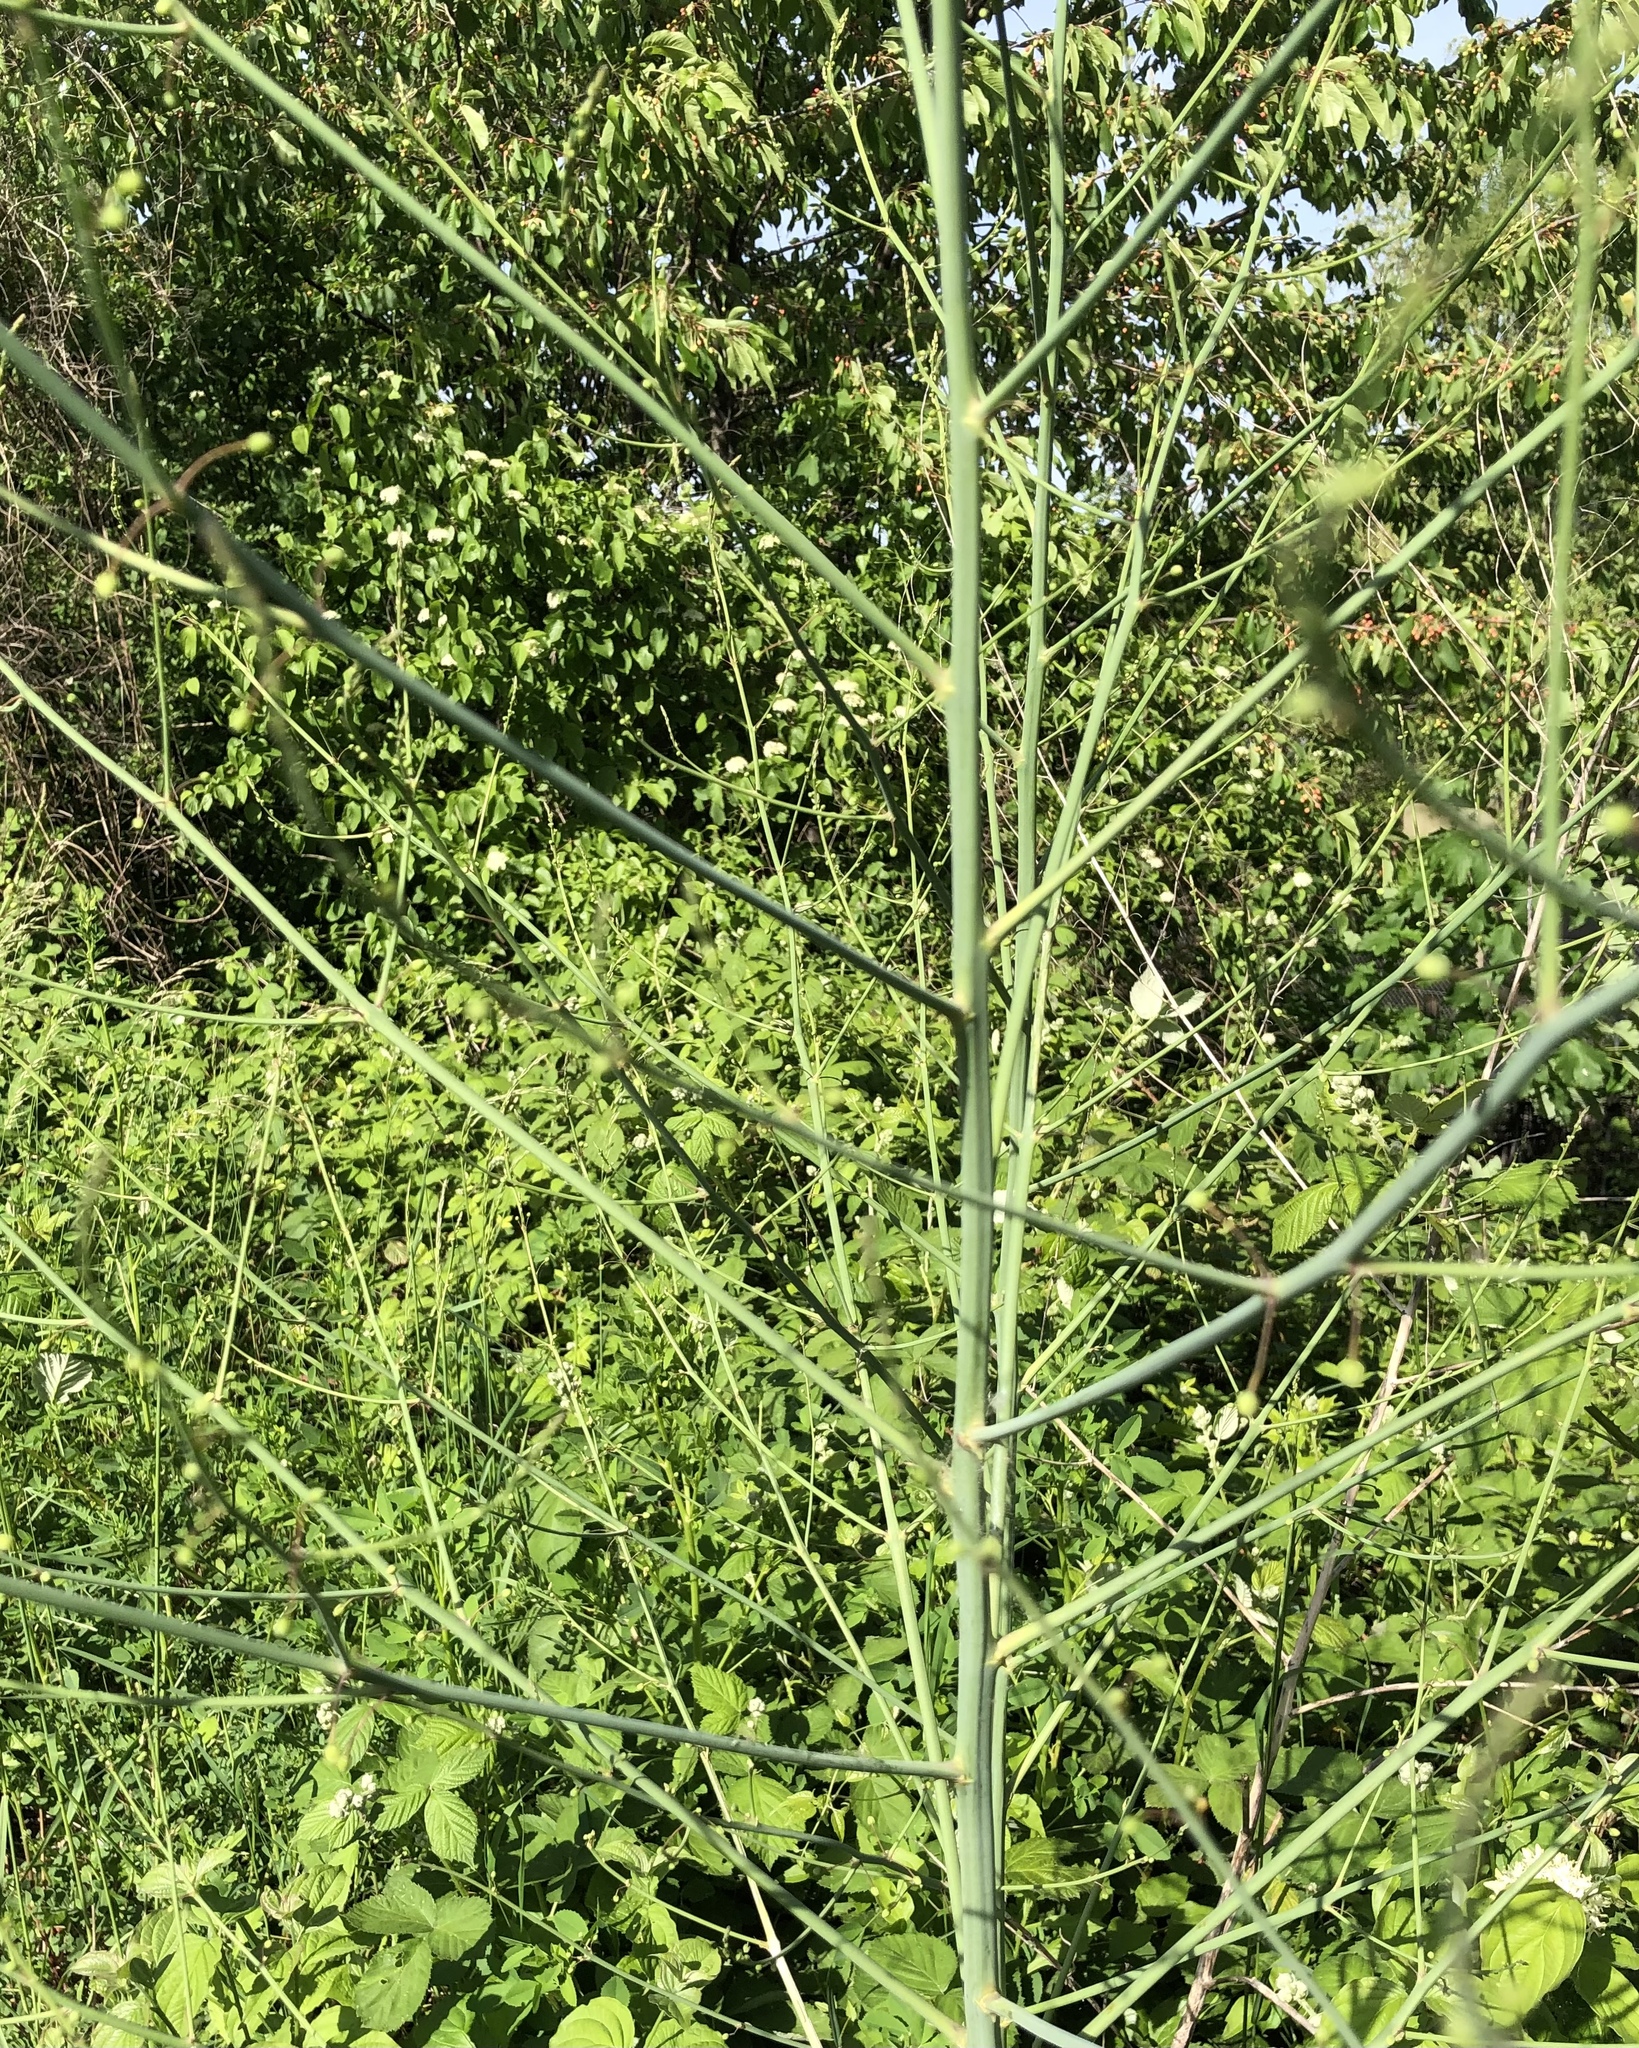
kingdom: Plantae
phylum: Tracheophyta
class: Liliopsida
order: Asparagales
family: Asparagaceae
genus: Asparagus
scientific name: Asparagus officinalis
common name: Garden asparagus
